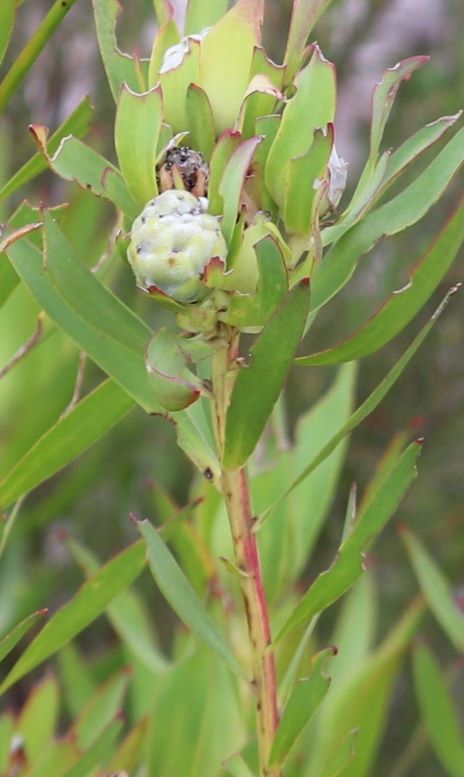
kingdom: Plantae
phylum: Tracheophyta
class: Magnoliopsida
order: Proteales
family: Proteaceae
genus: Leucadendron
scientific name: Leucadendron salignum
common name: Common sunshine conebush
